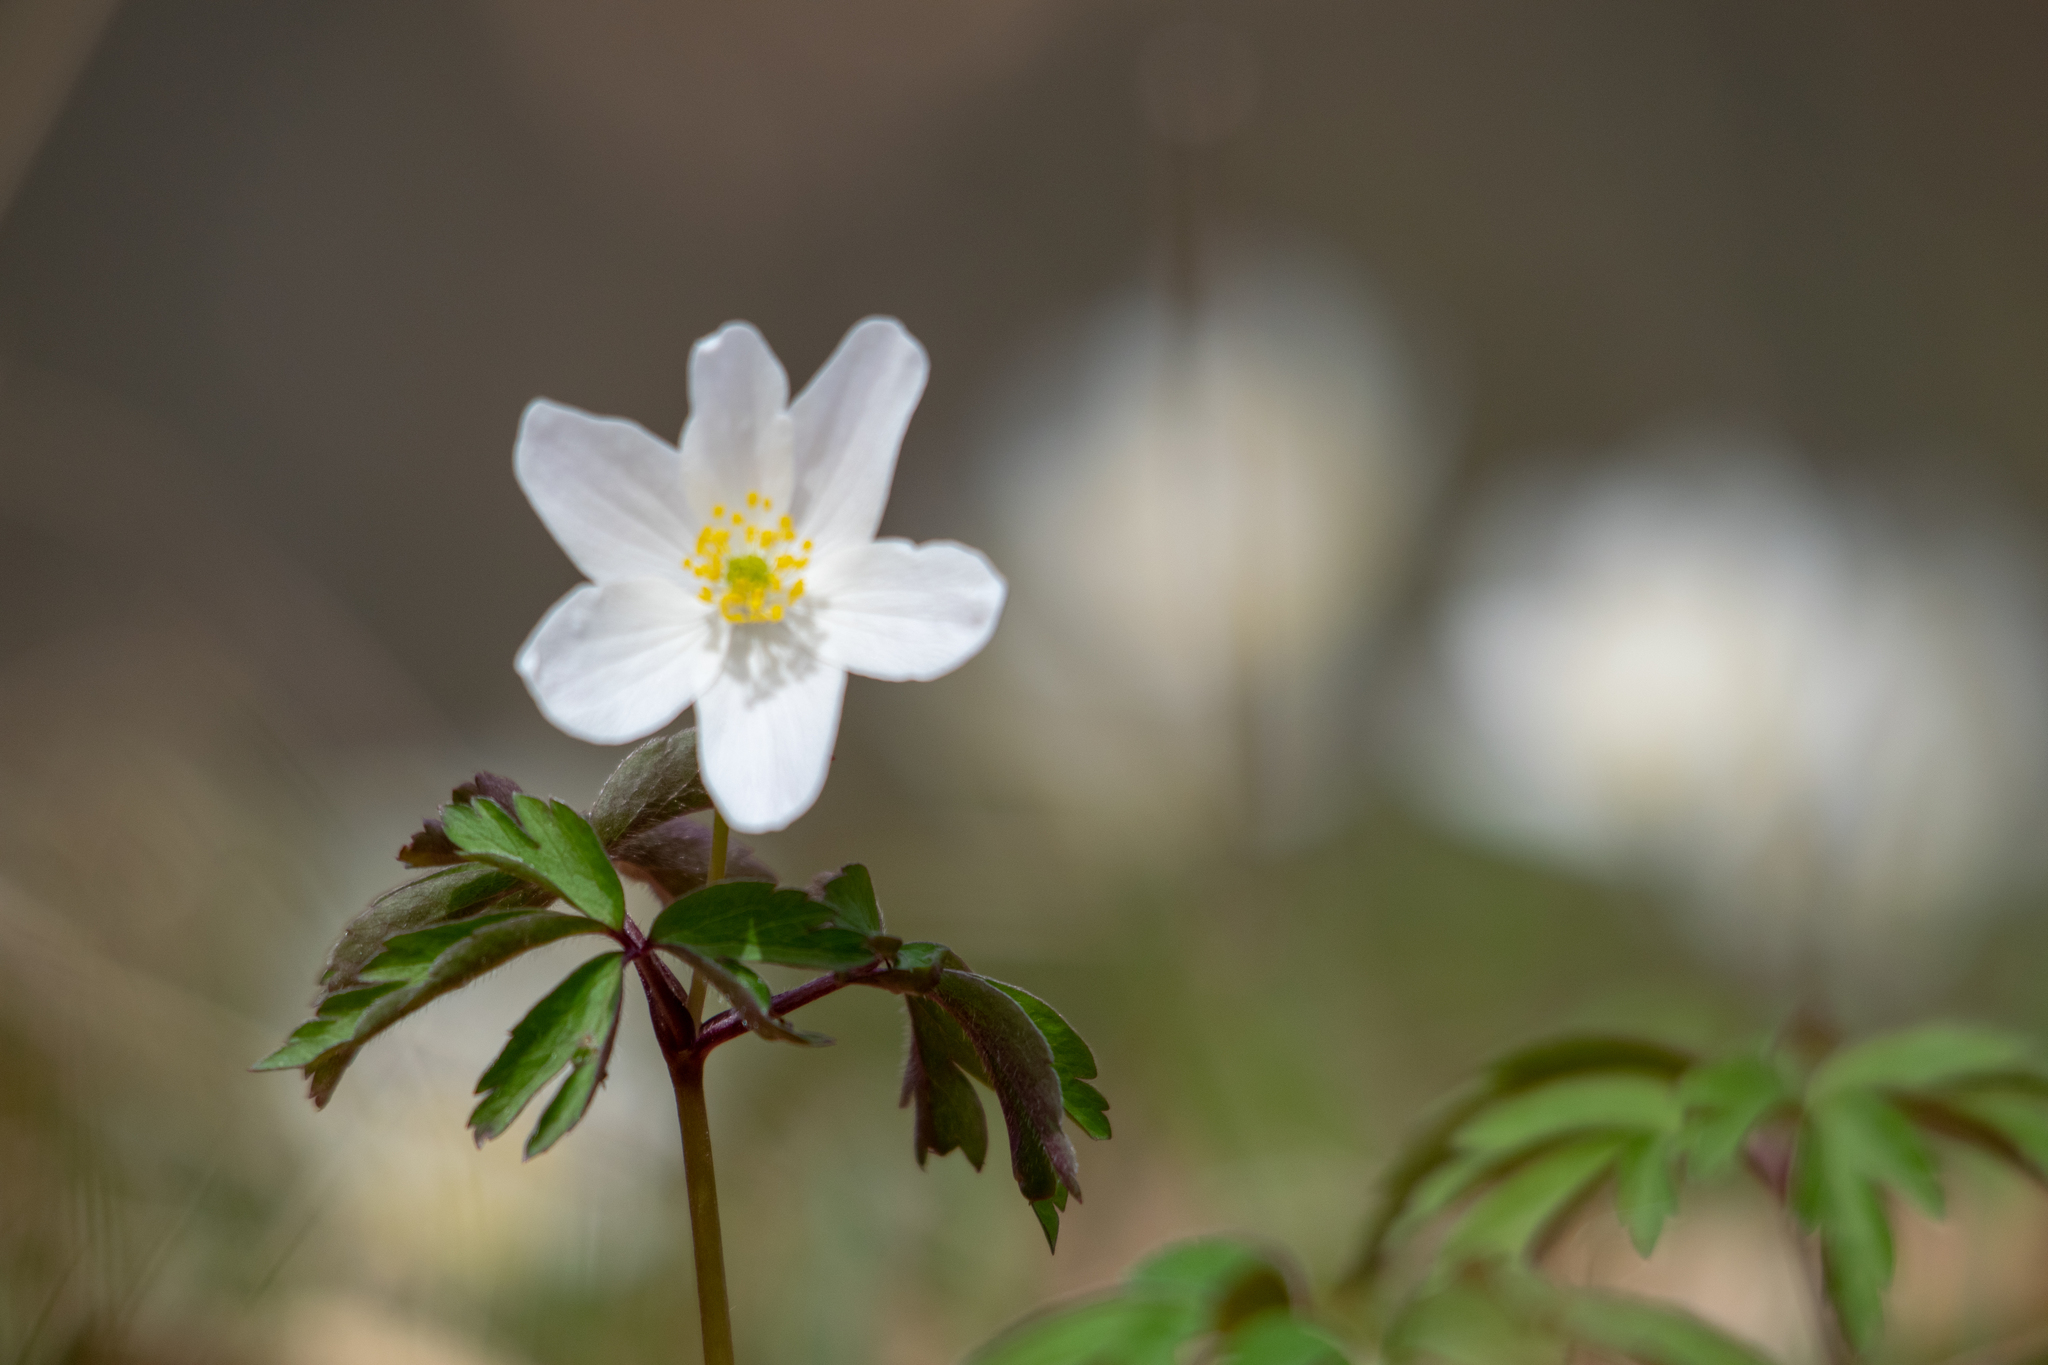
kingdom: Plantae
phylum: Tracheophyta
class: Magnoliopsida
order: Ranunculales
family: Ranunculaceae
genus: Anemone
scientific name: Anemone nemorosa
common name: Wood anemone
